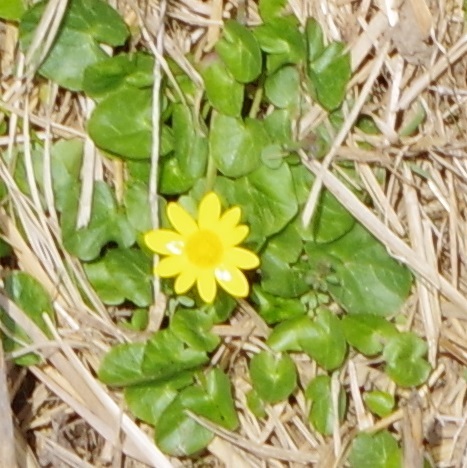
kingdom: Plantae
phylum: Tracheophyta
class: Magnoliopsida
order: Ranunculales
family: Ranunculaceae
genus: Ficaria
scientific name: Ficaria verna
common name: Lesser celandine
